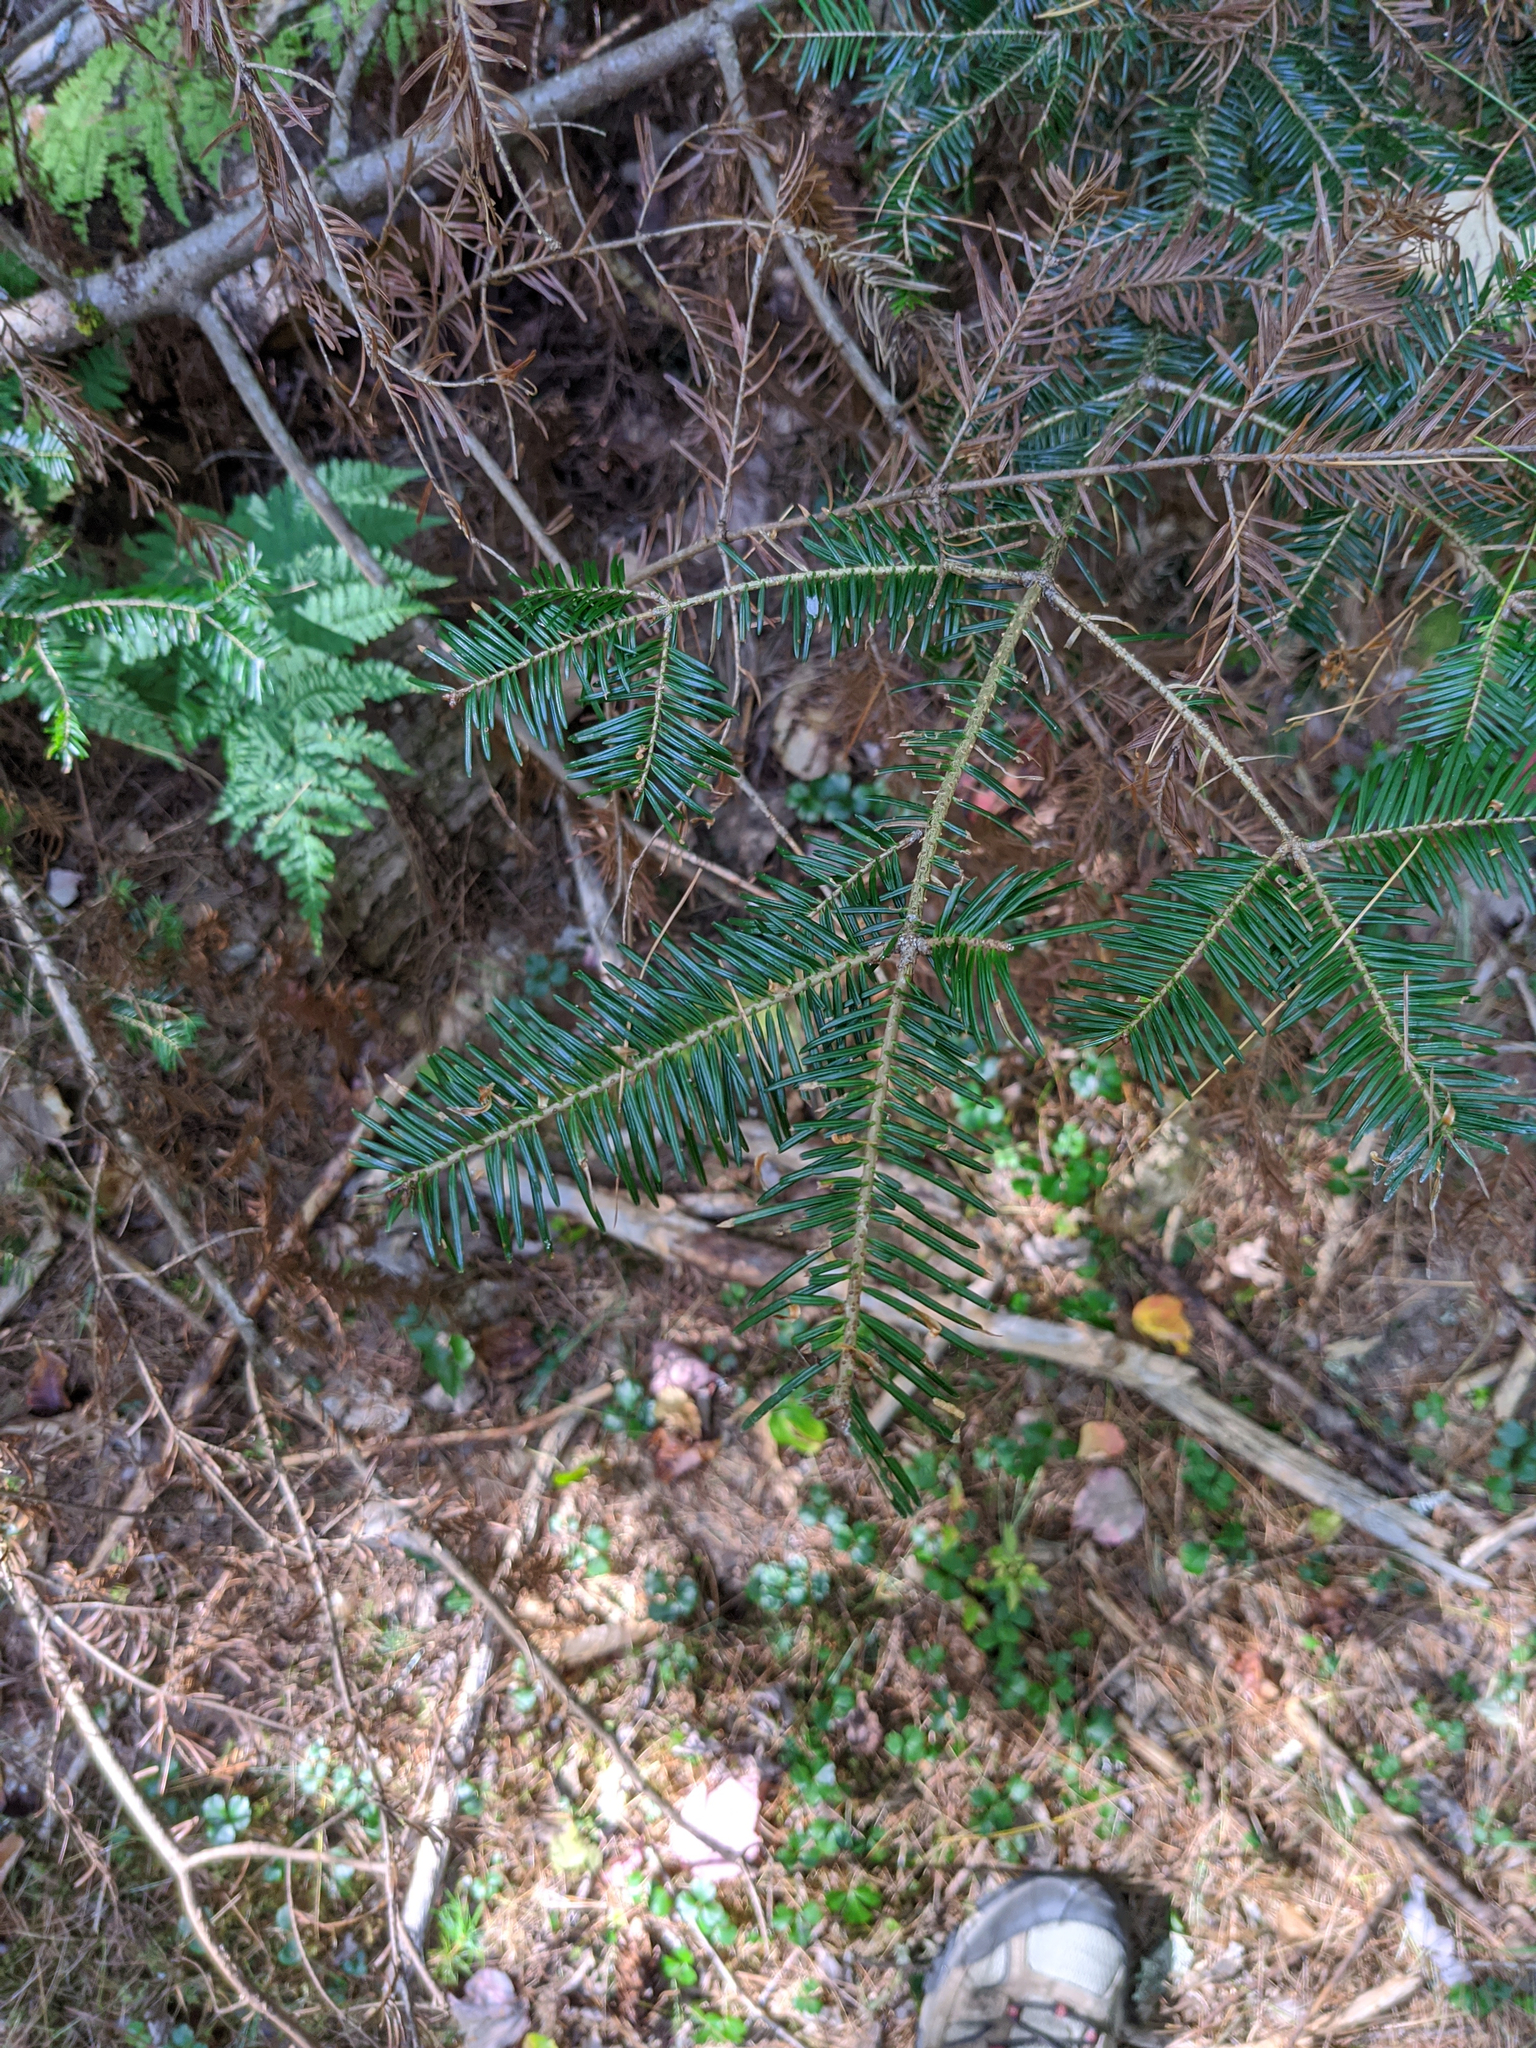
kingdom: Plantae
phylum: Tracheophyta
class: Pinopsida
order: Pinales
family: Pinaceae
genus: Abies
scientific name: Abies balsamea
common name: Balsam fir
